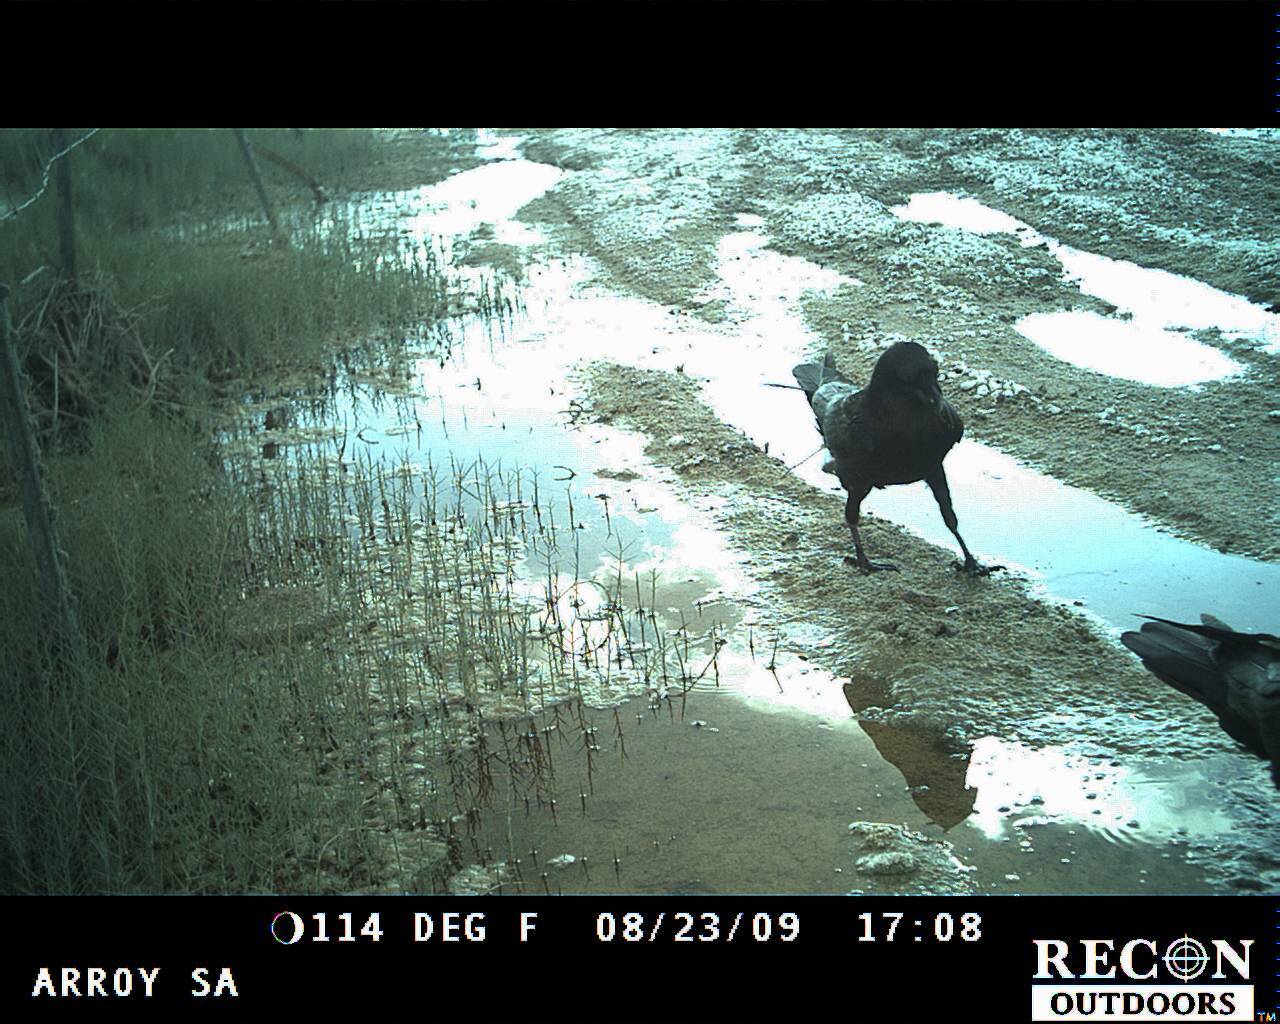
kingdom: Animalia
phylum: Chordata
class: Aves
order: Passeriformes
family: Corvidae
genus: Corvus
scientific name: Corvus corax
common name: Common raven
